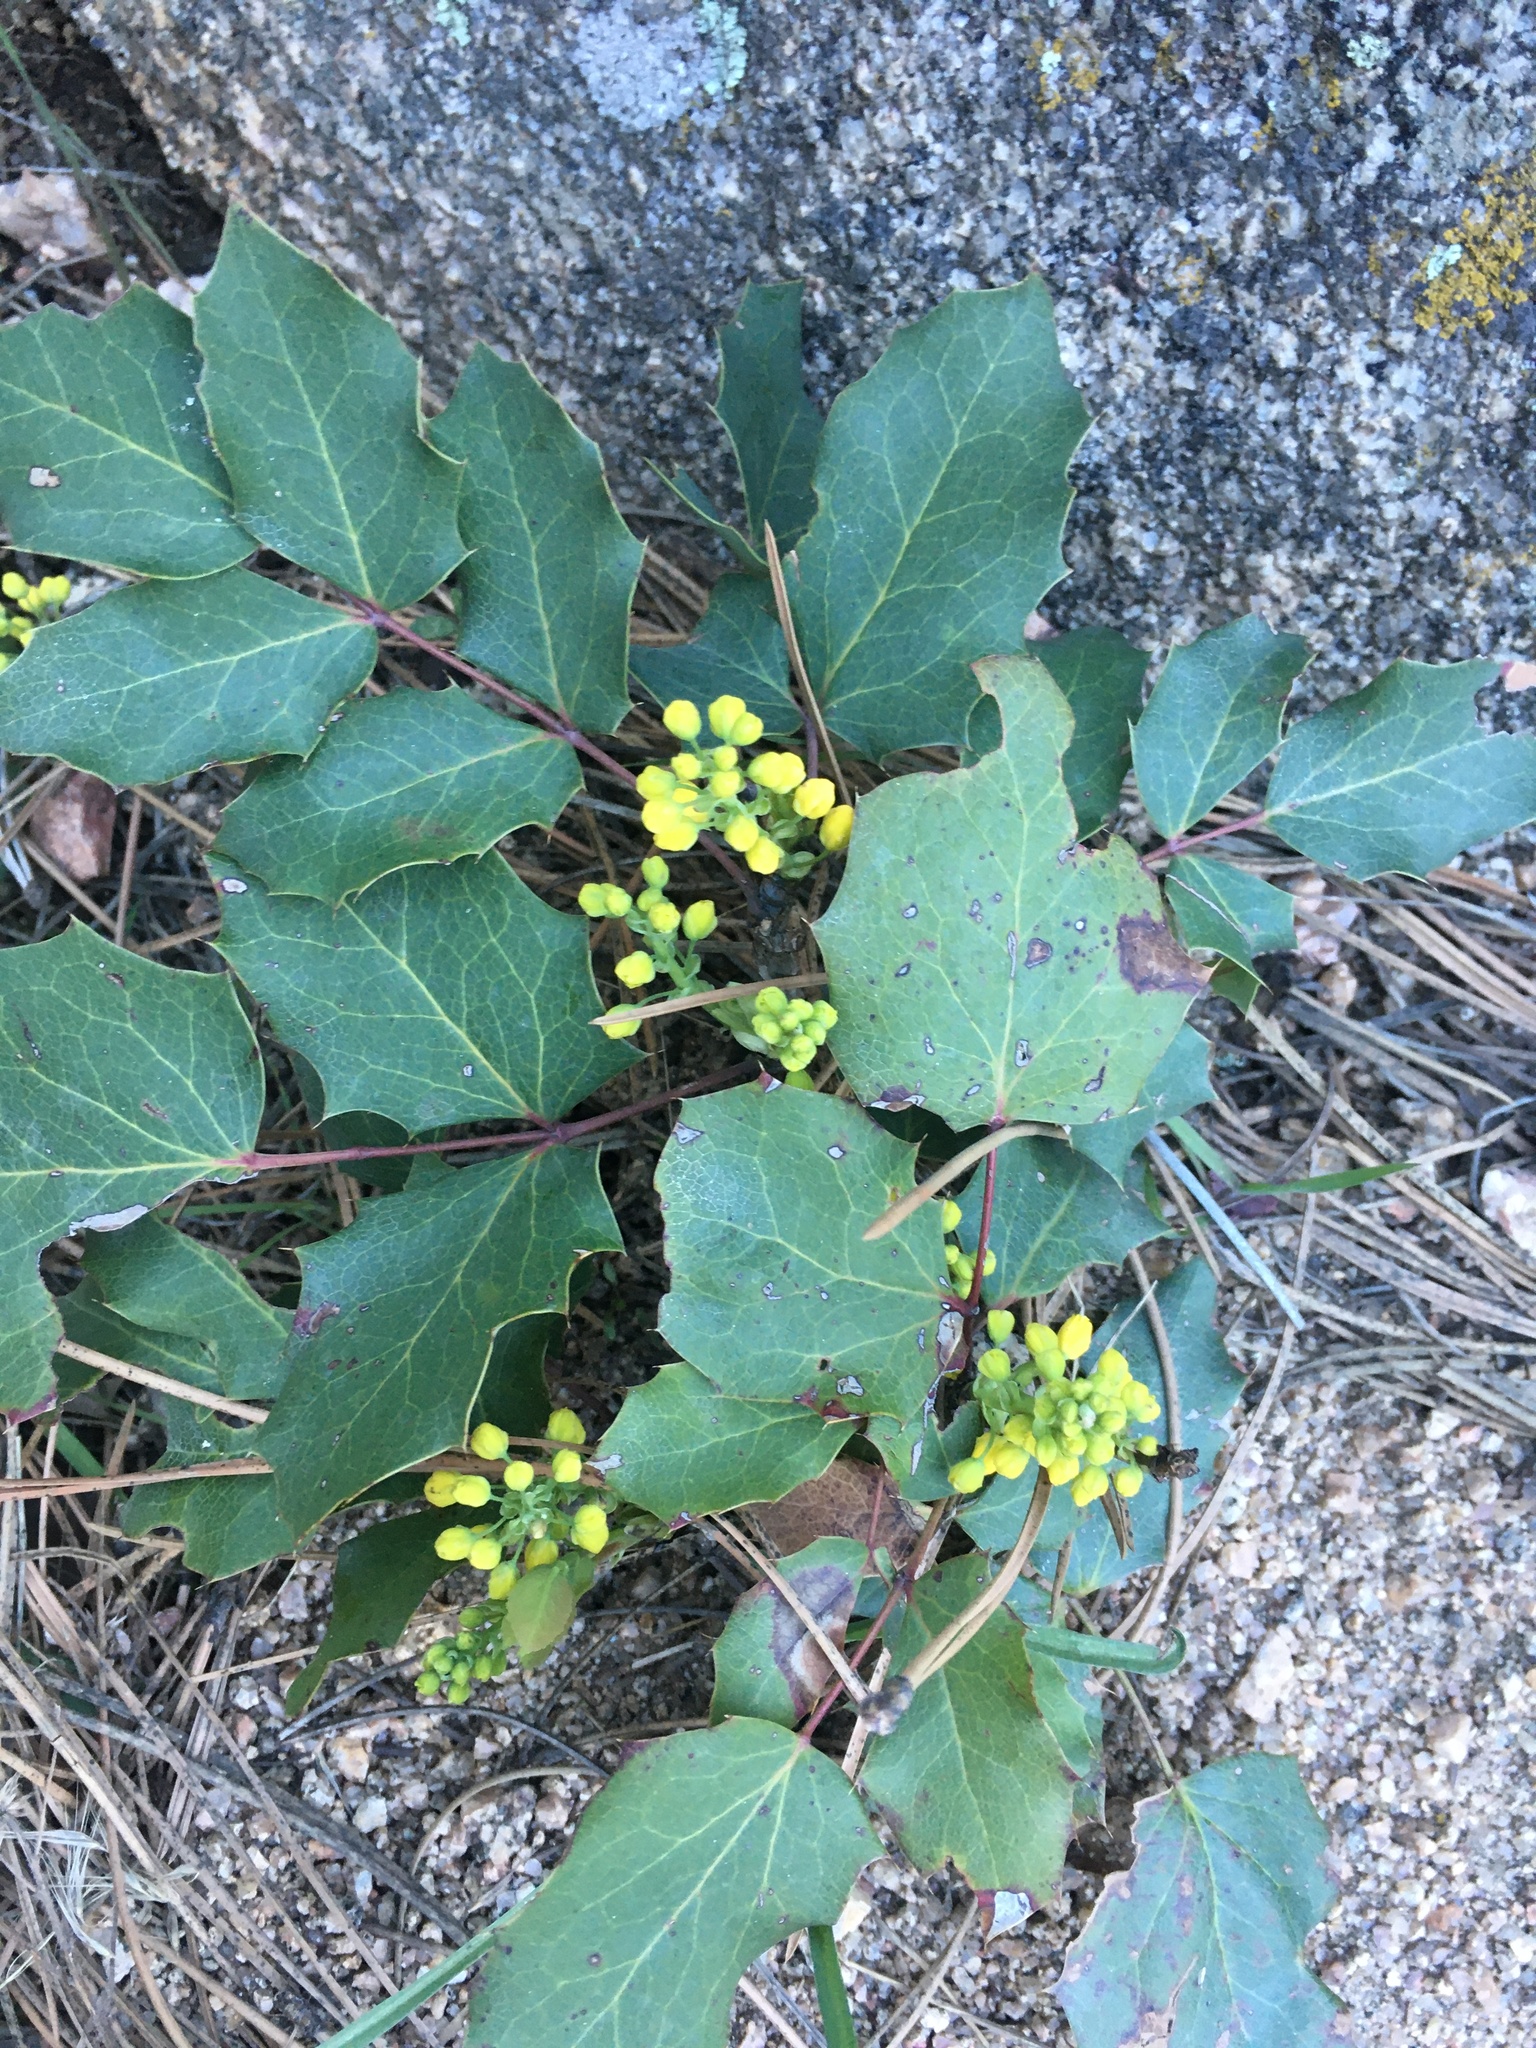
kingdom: Plantae
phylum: Tracheophyta
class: Magnoliopsida
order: Ranunculales
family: Berberidaceae
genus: Mahonia
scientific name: Mahonia repens
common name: Creeping oregon-grape
